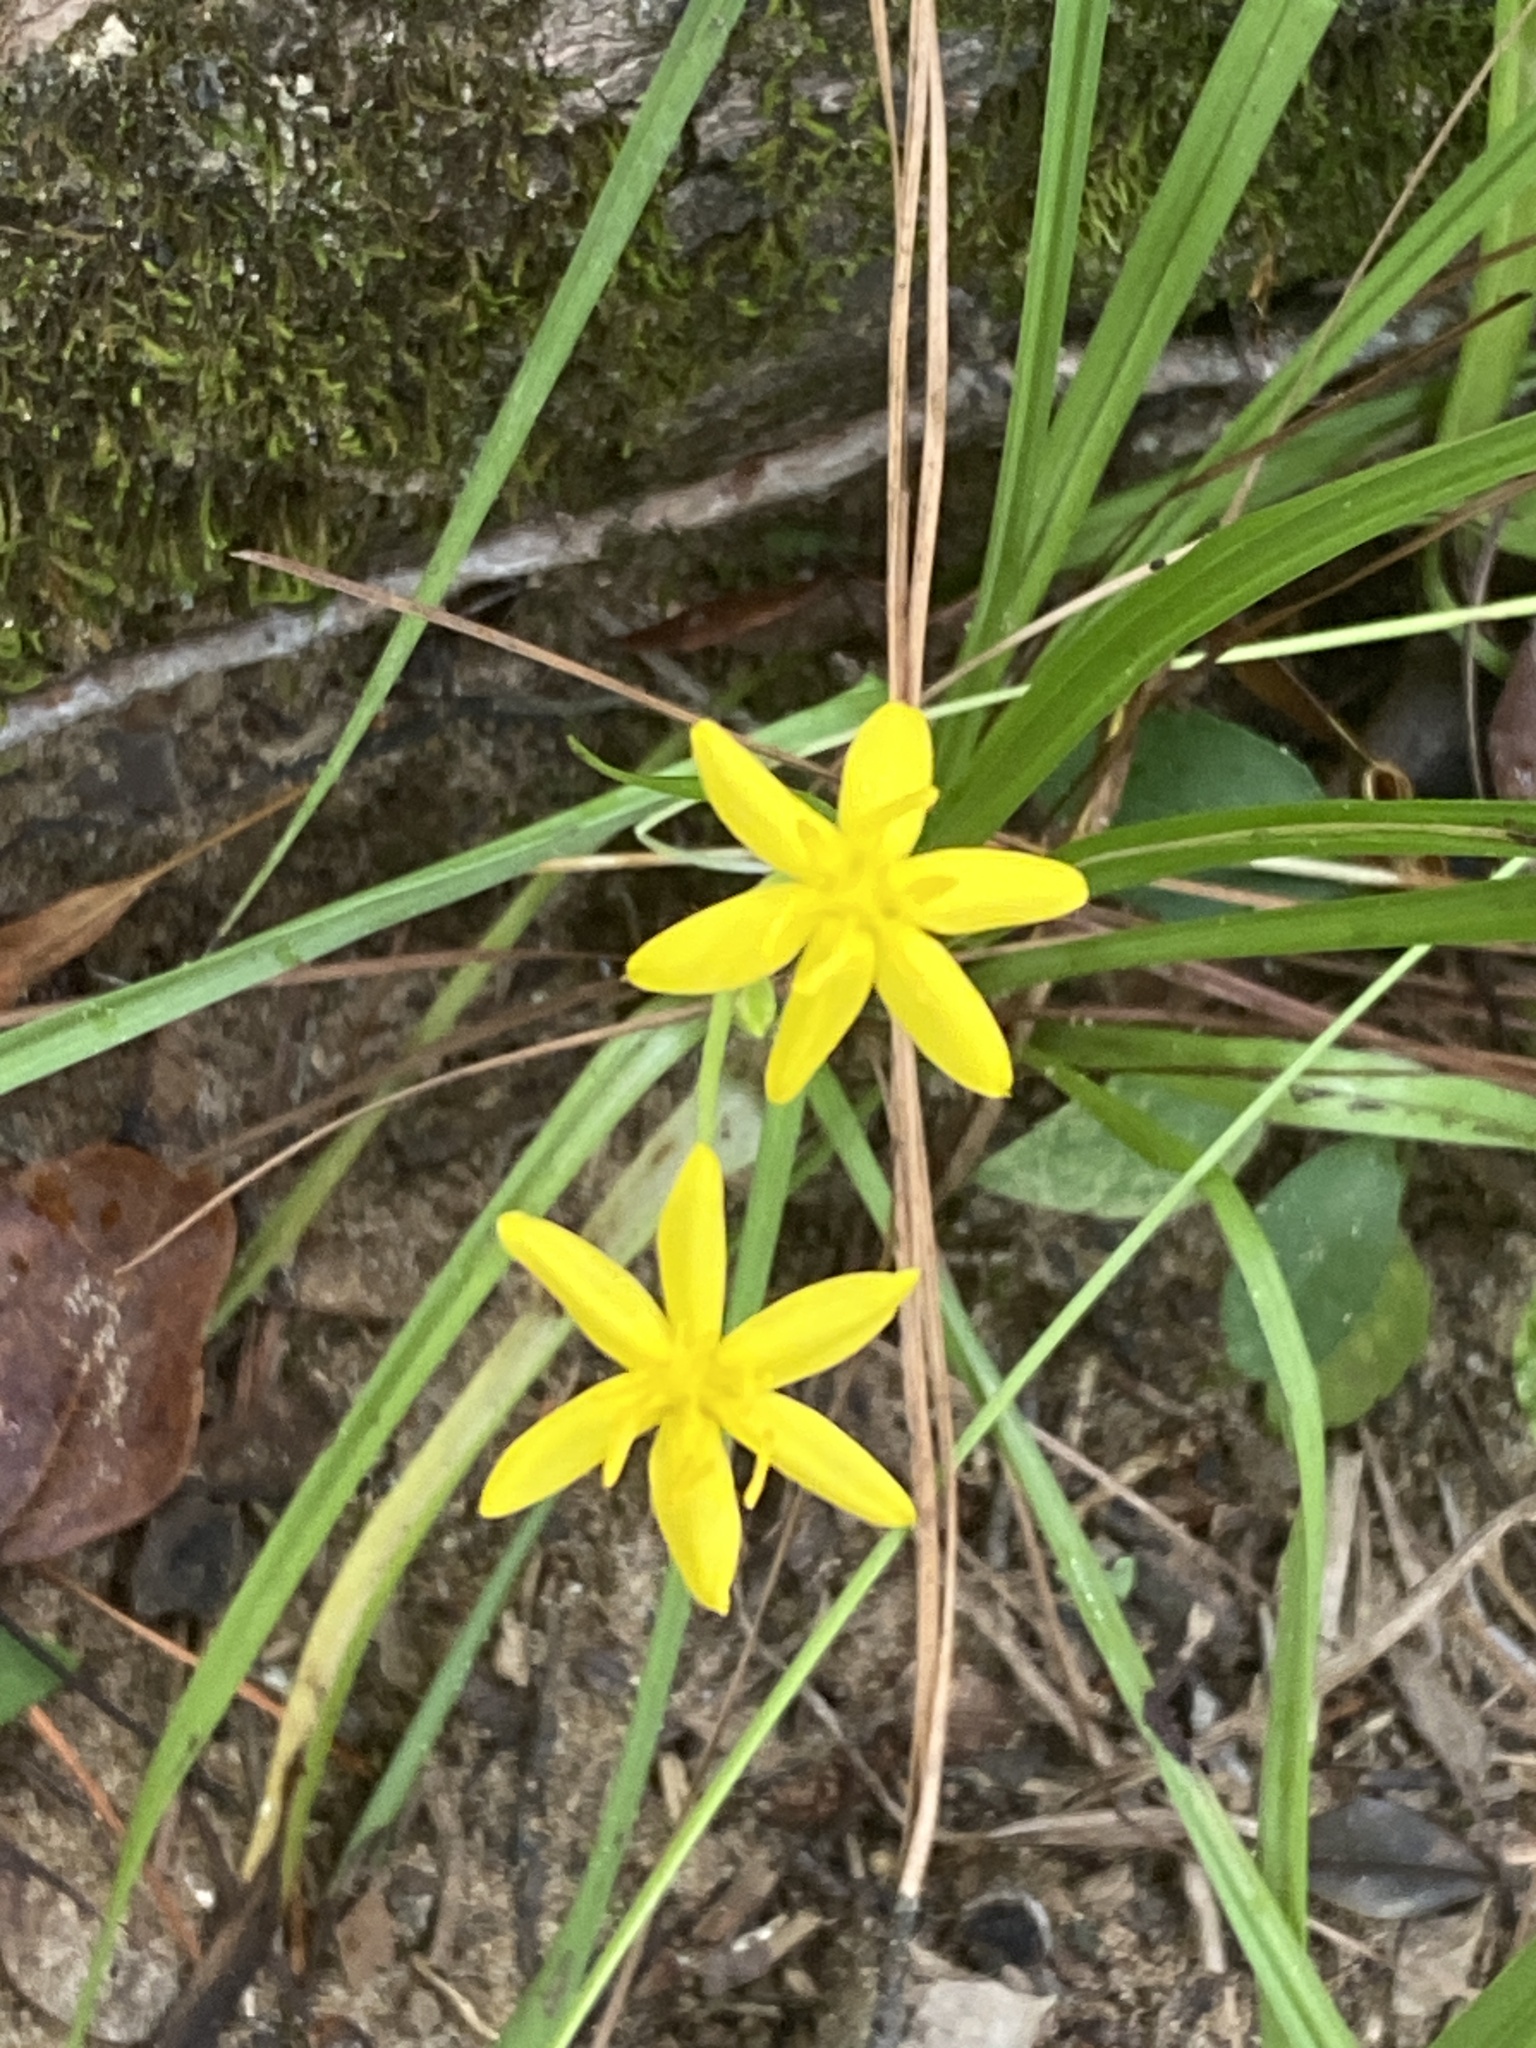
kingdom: Plantae
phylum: Tracheophyta
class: Liliopsida
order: Asparagales
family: Hypoxidaceae
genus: Hypoxis
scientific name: Hypoxis hirsuta
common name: Common goldstar
